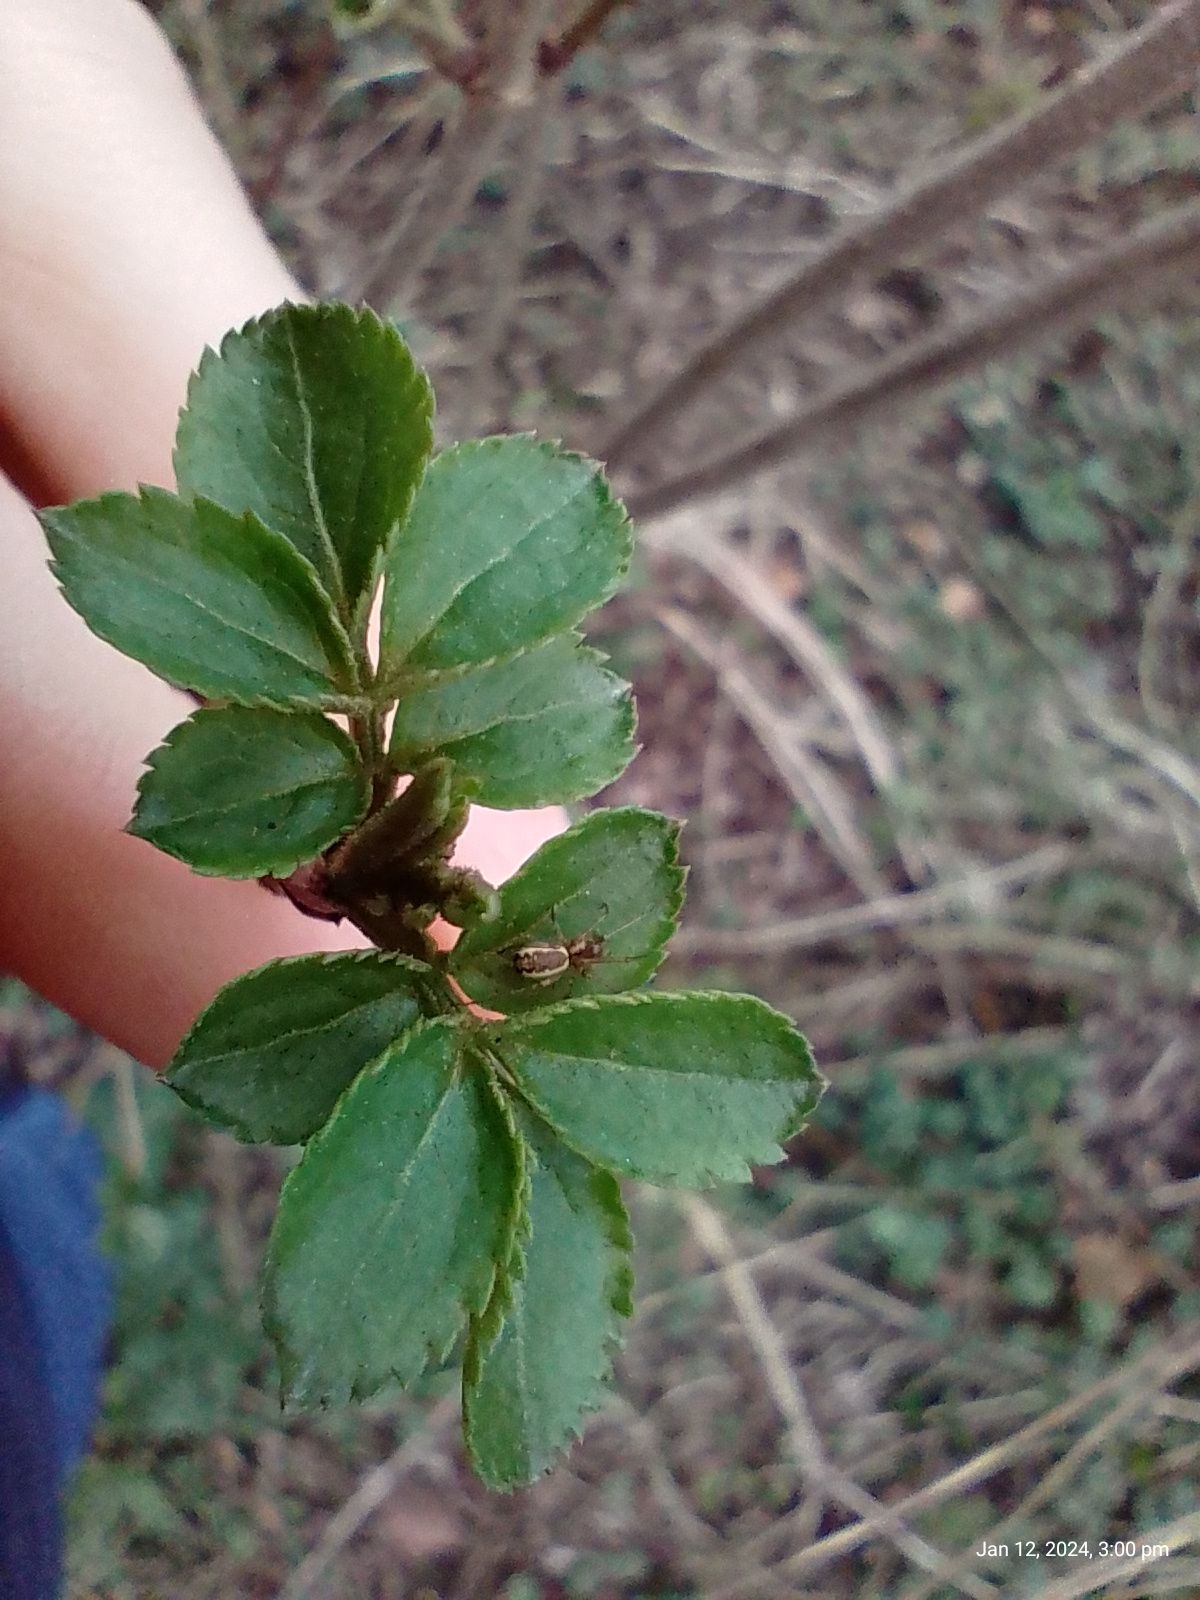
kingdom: Plantae
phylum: Tracheophyta
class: Magnoliopsida
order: Dipsacales
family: Viburnaceae
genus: Sambucus
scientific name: Sambucus nigra
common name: Elder
